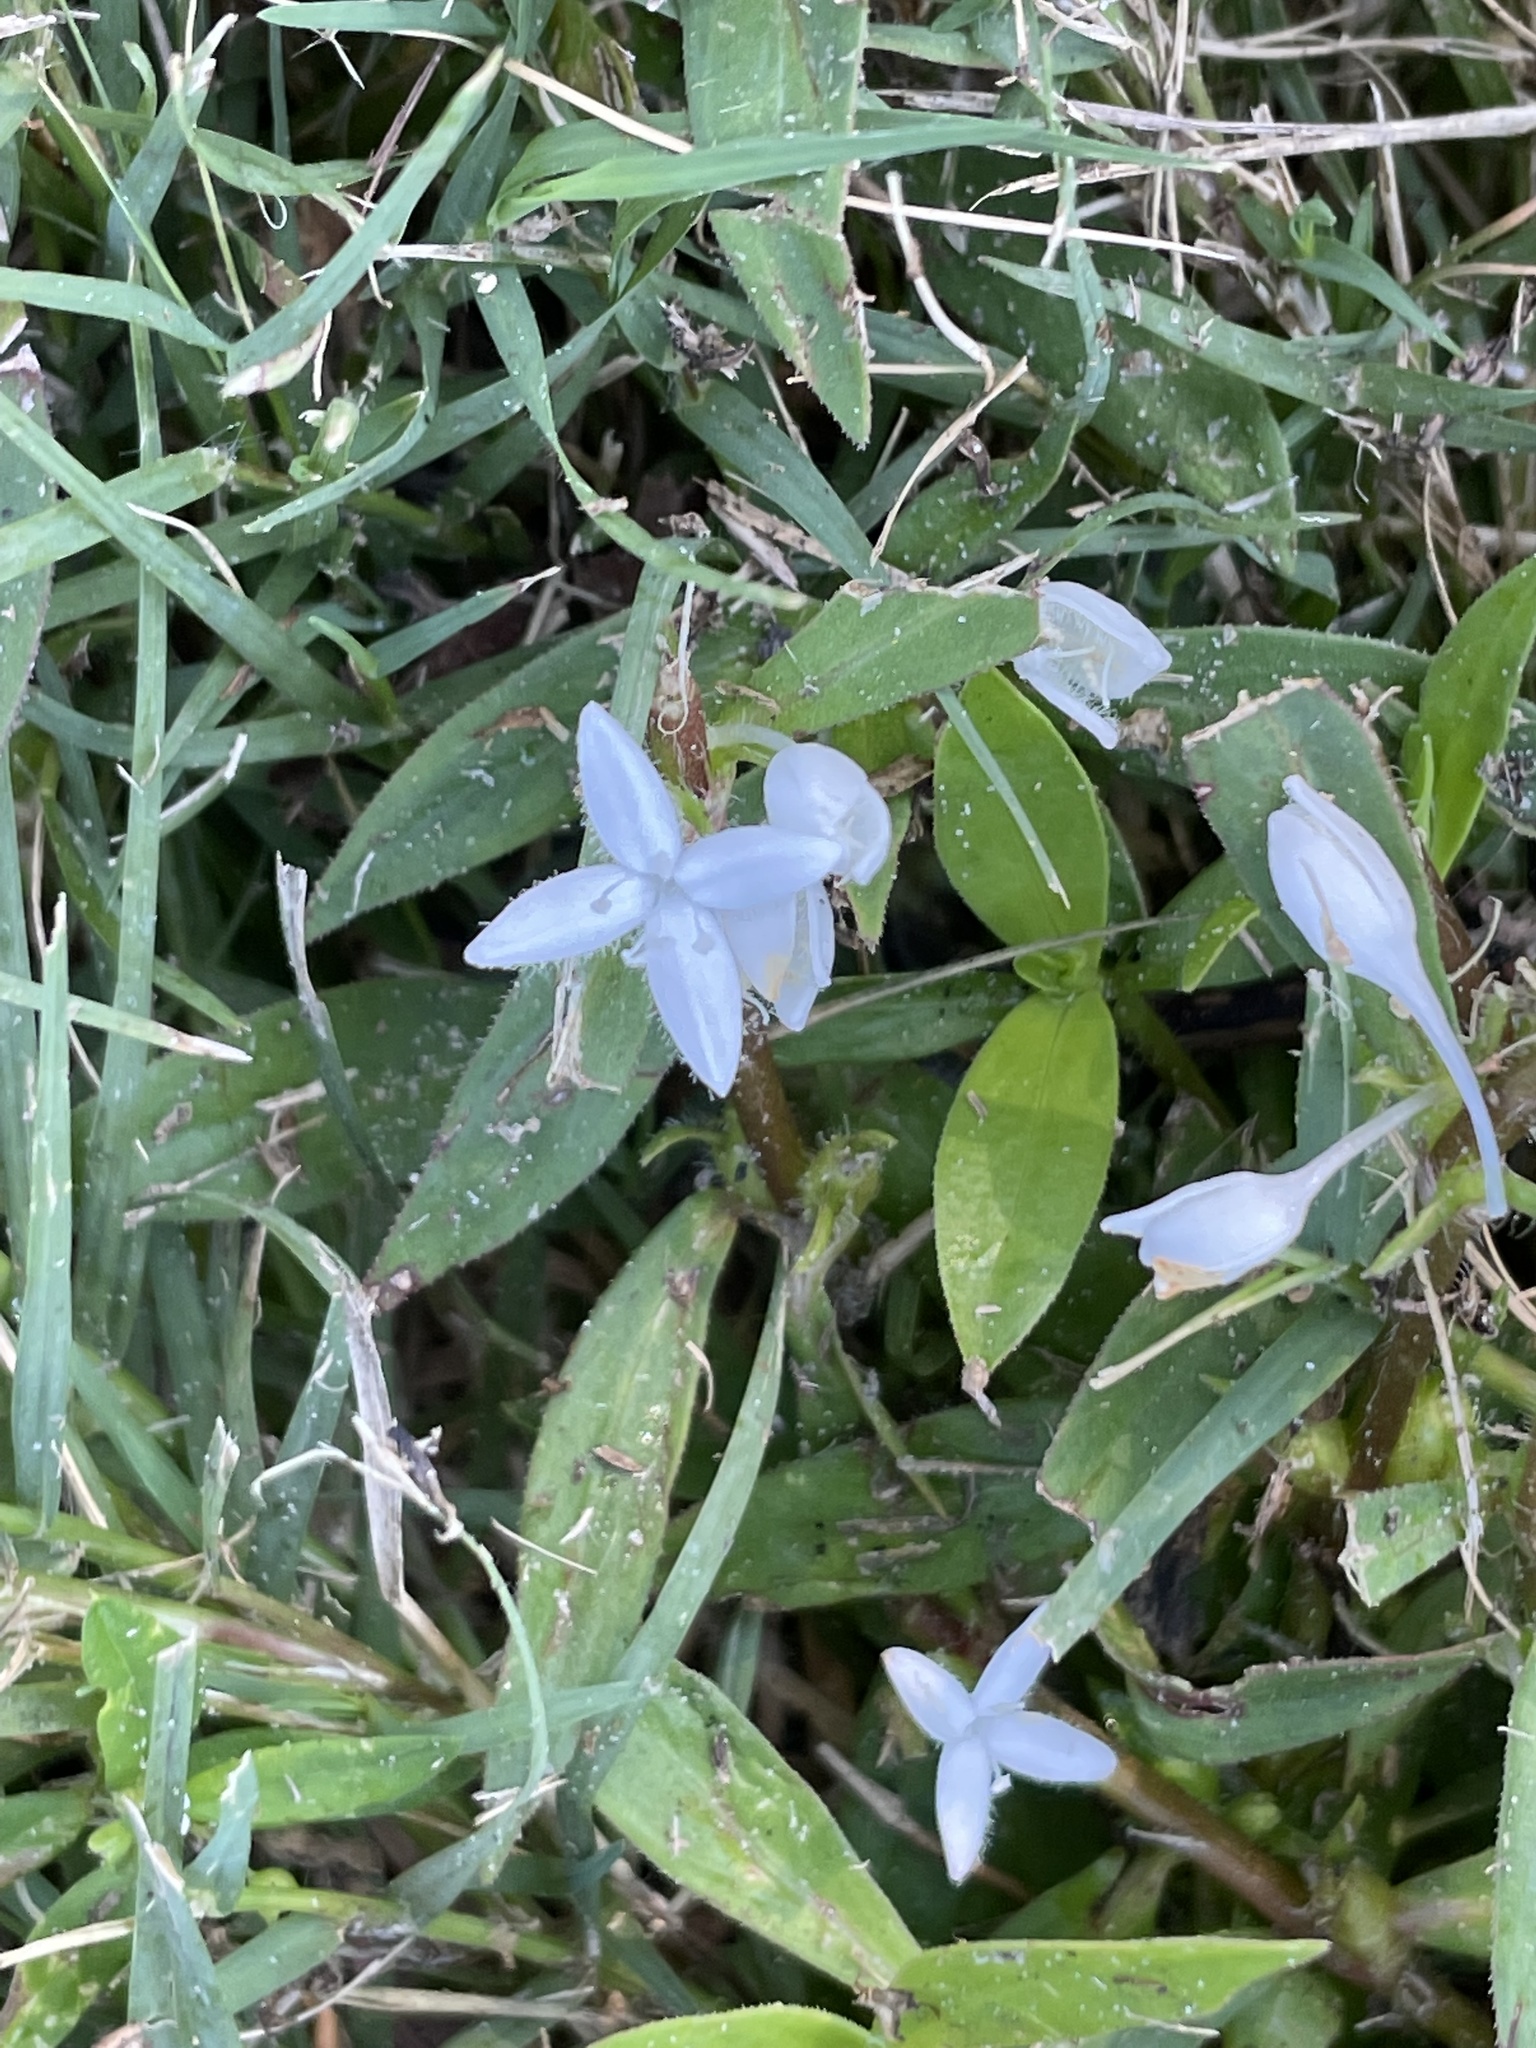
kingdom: Plantae
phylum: Tracheophyta
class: Magnoliopsida
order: Gentianales
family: Rubiaceae
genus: Diodia
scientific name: Diodia virginiana
